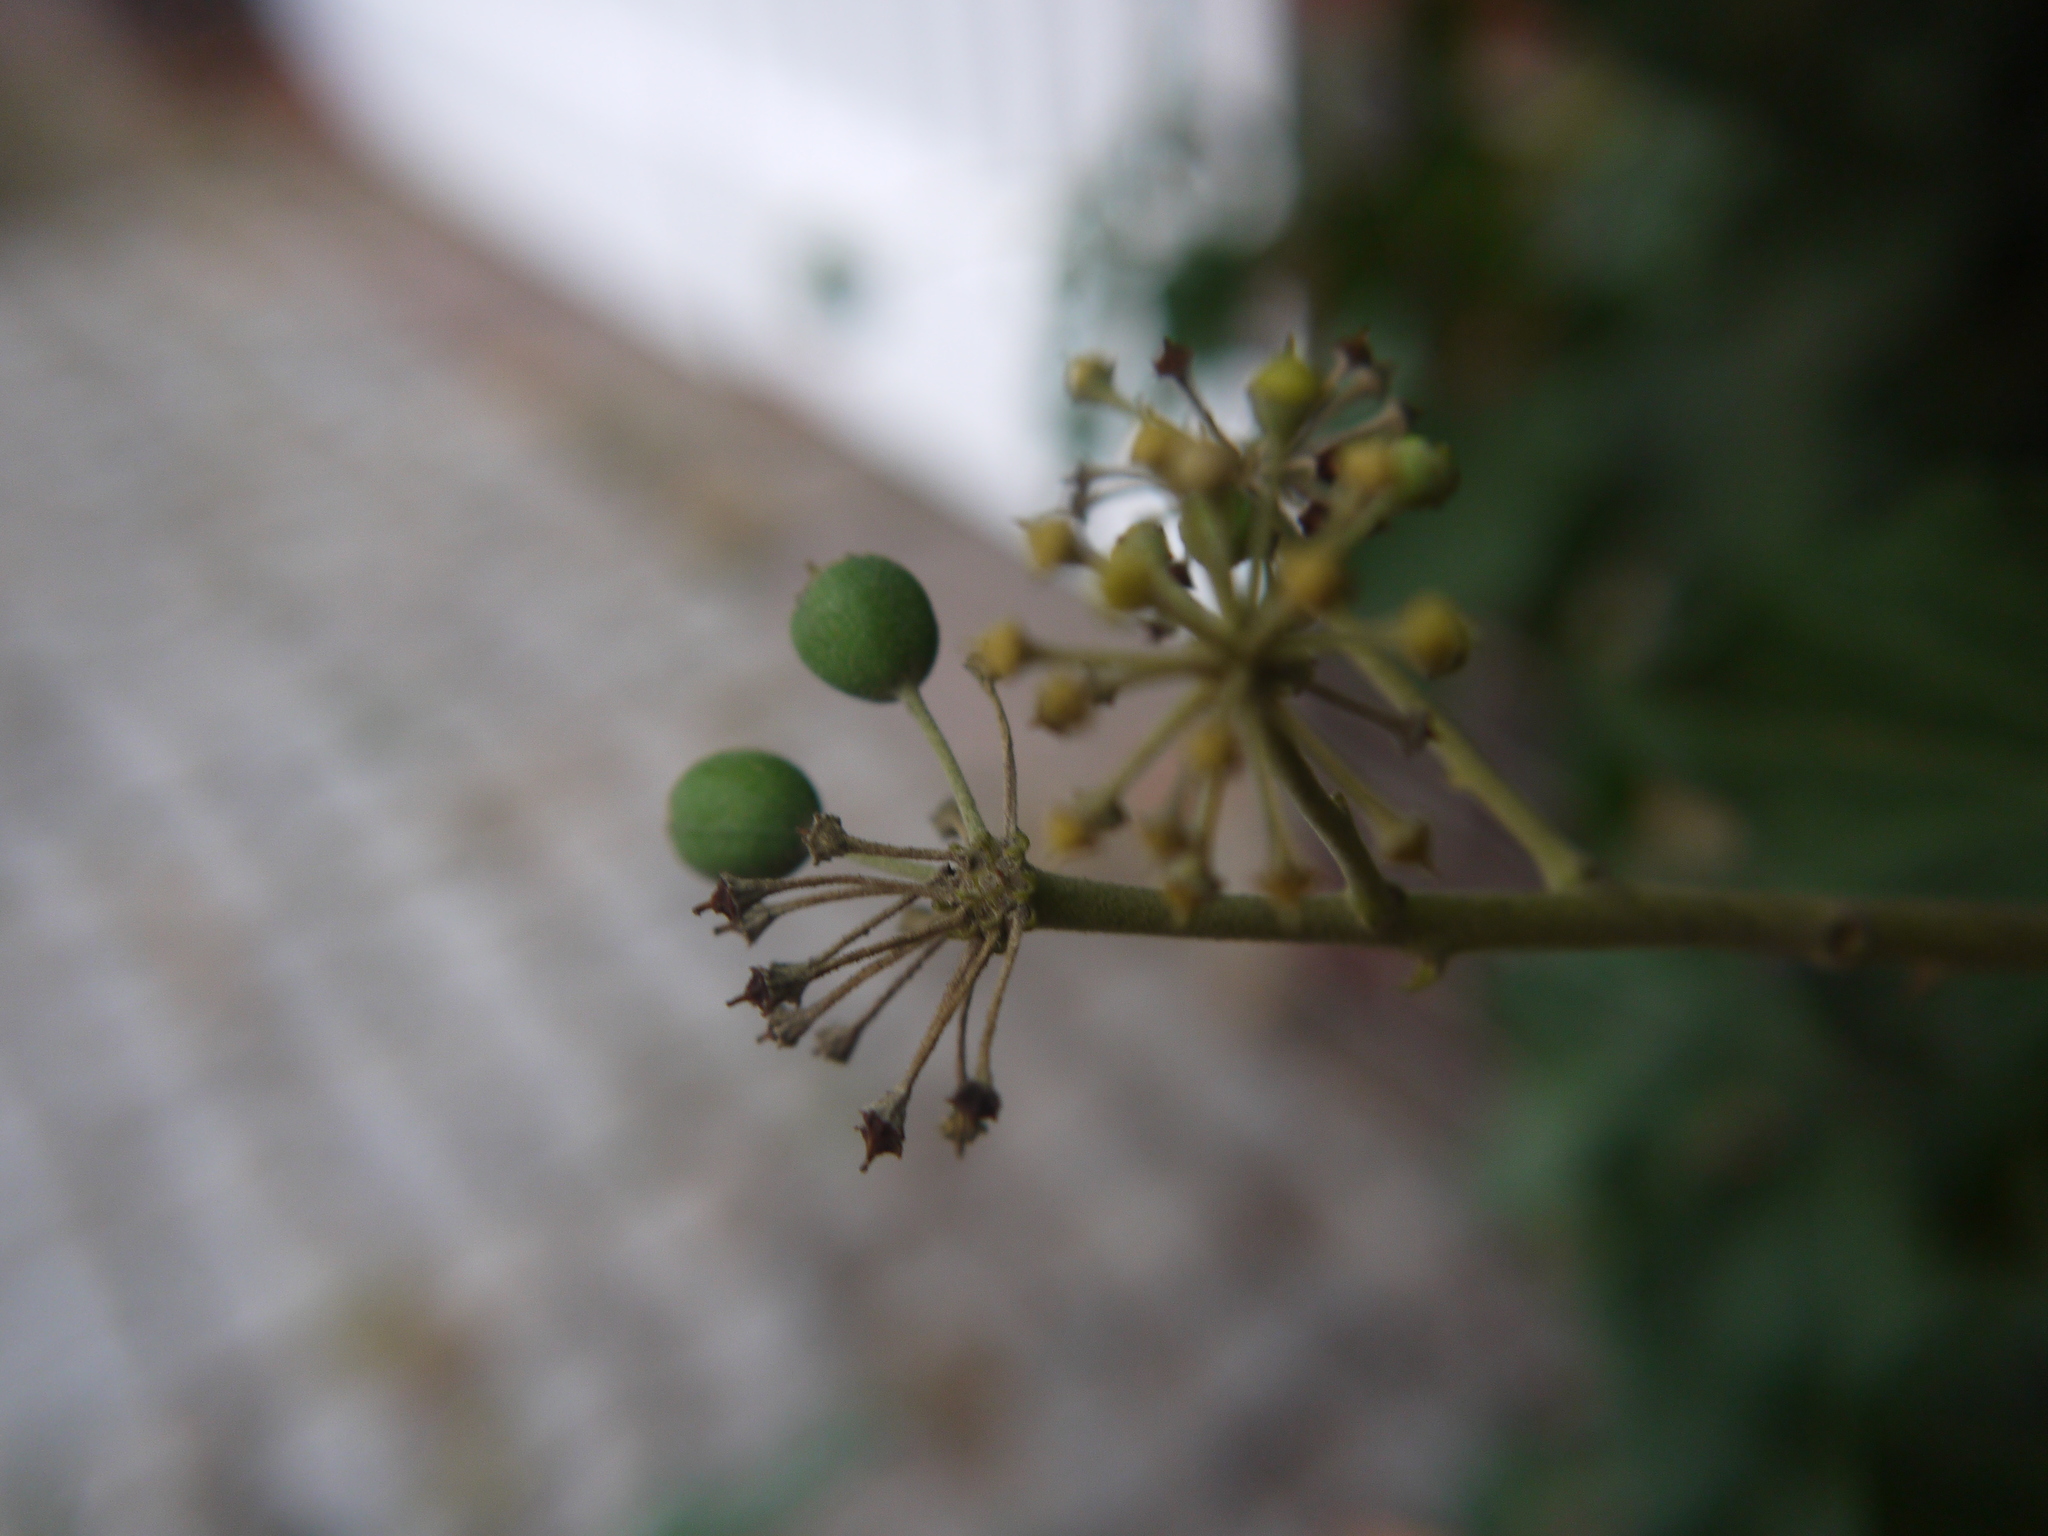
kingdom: Plantae
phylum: Tracheophyta
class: Magnoliopsida
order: Apiales
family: Araliaceae
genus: Hedera
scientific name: Hedera helix
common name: Ivy
